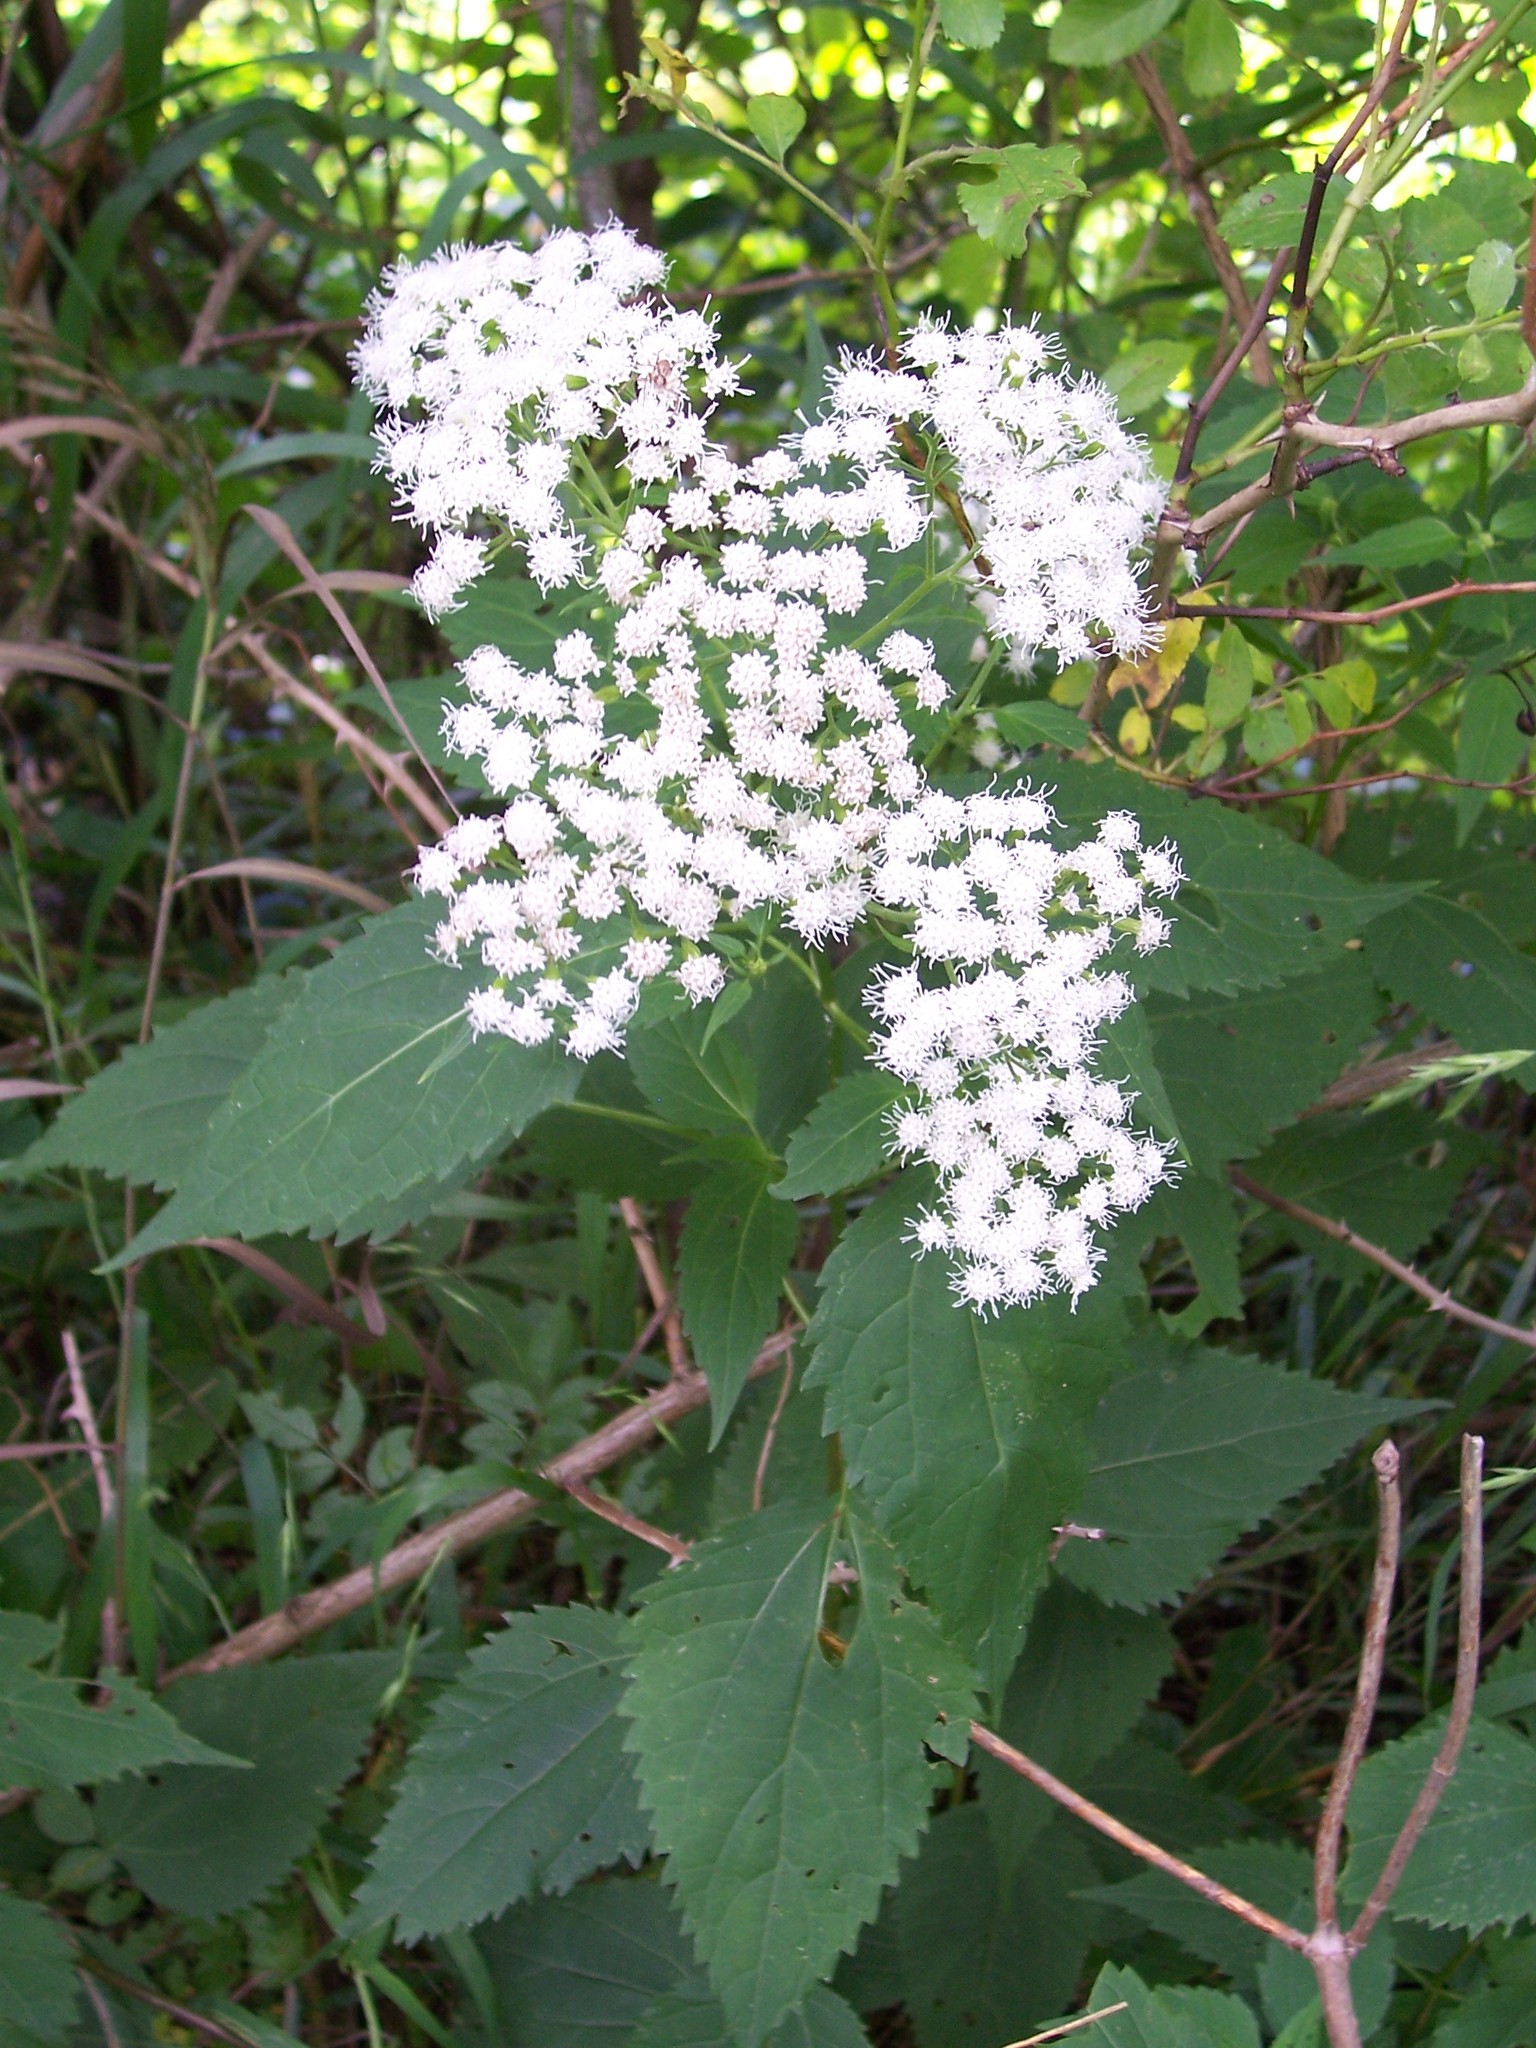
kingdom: Plantae
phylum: Tracheophyta
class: Magnoliopsida
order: Asterales
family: Asteraceae
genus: Ageratina
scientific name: Ageratina altissima
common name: White snakeroot
